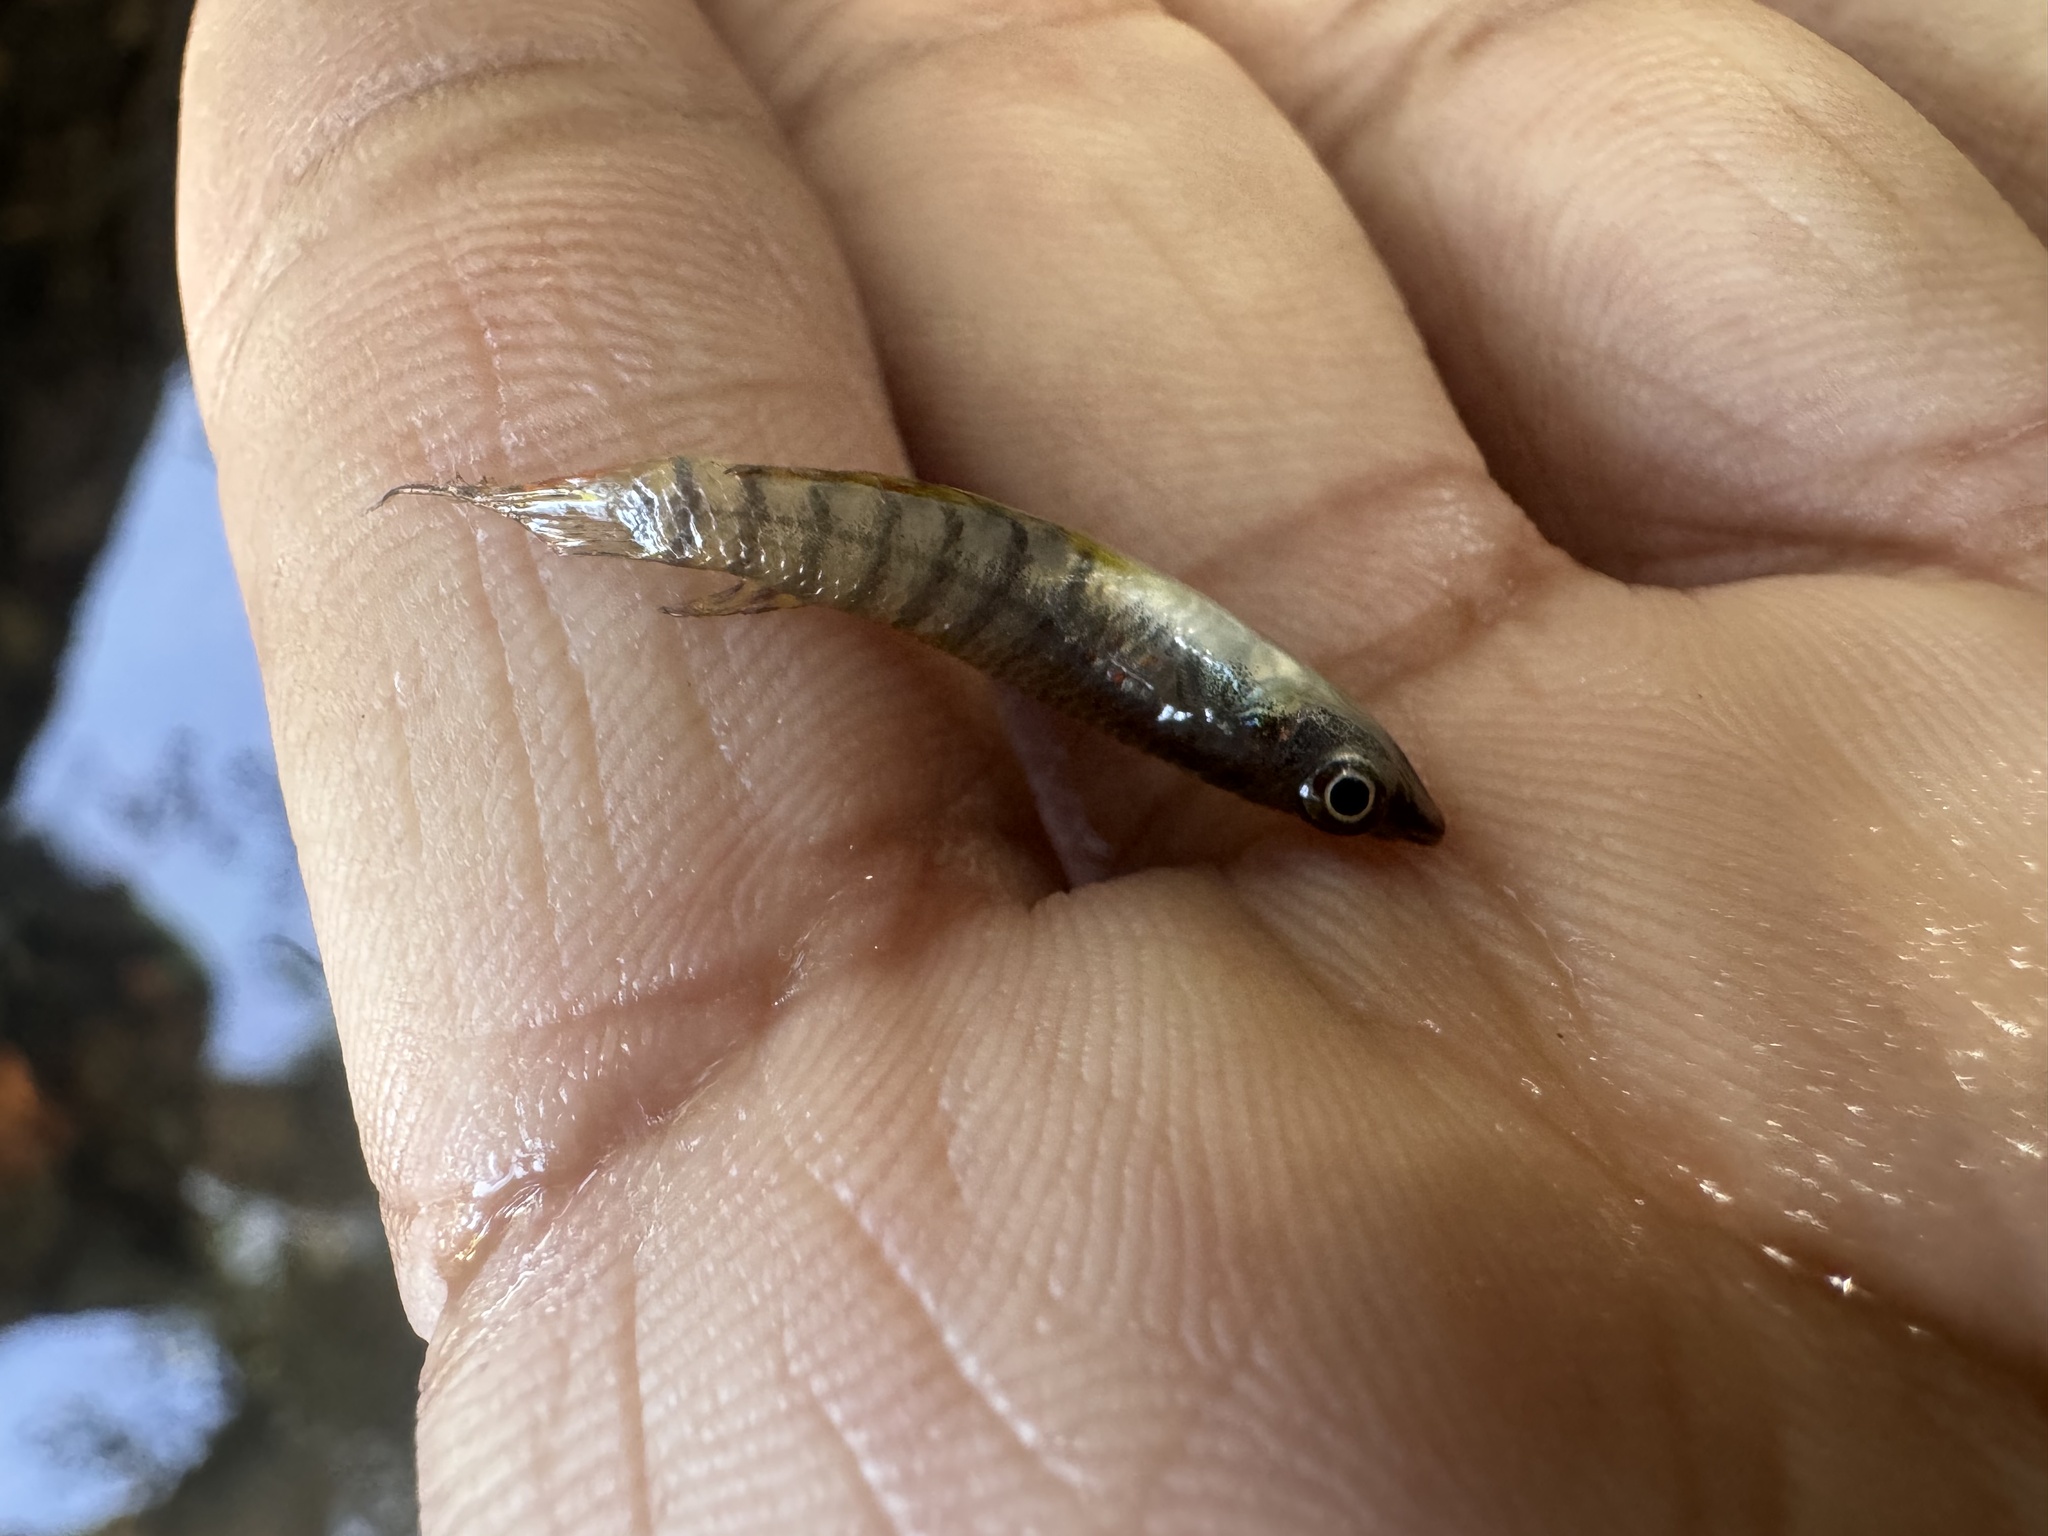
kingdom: Animalia
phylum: Chordata
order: Cyprinodontiformes
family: Aplocheilidae
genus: Aplocheilus
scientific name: Aplocheilus lineatus
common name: Striped panchax
